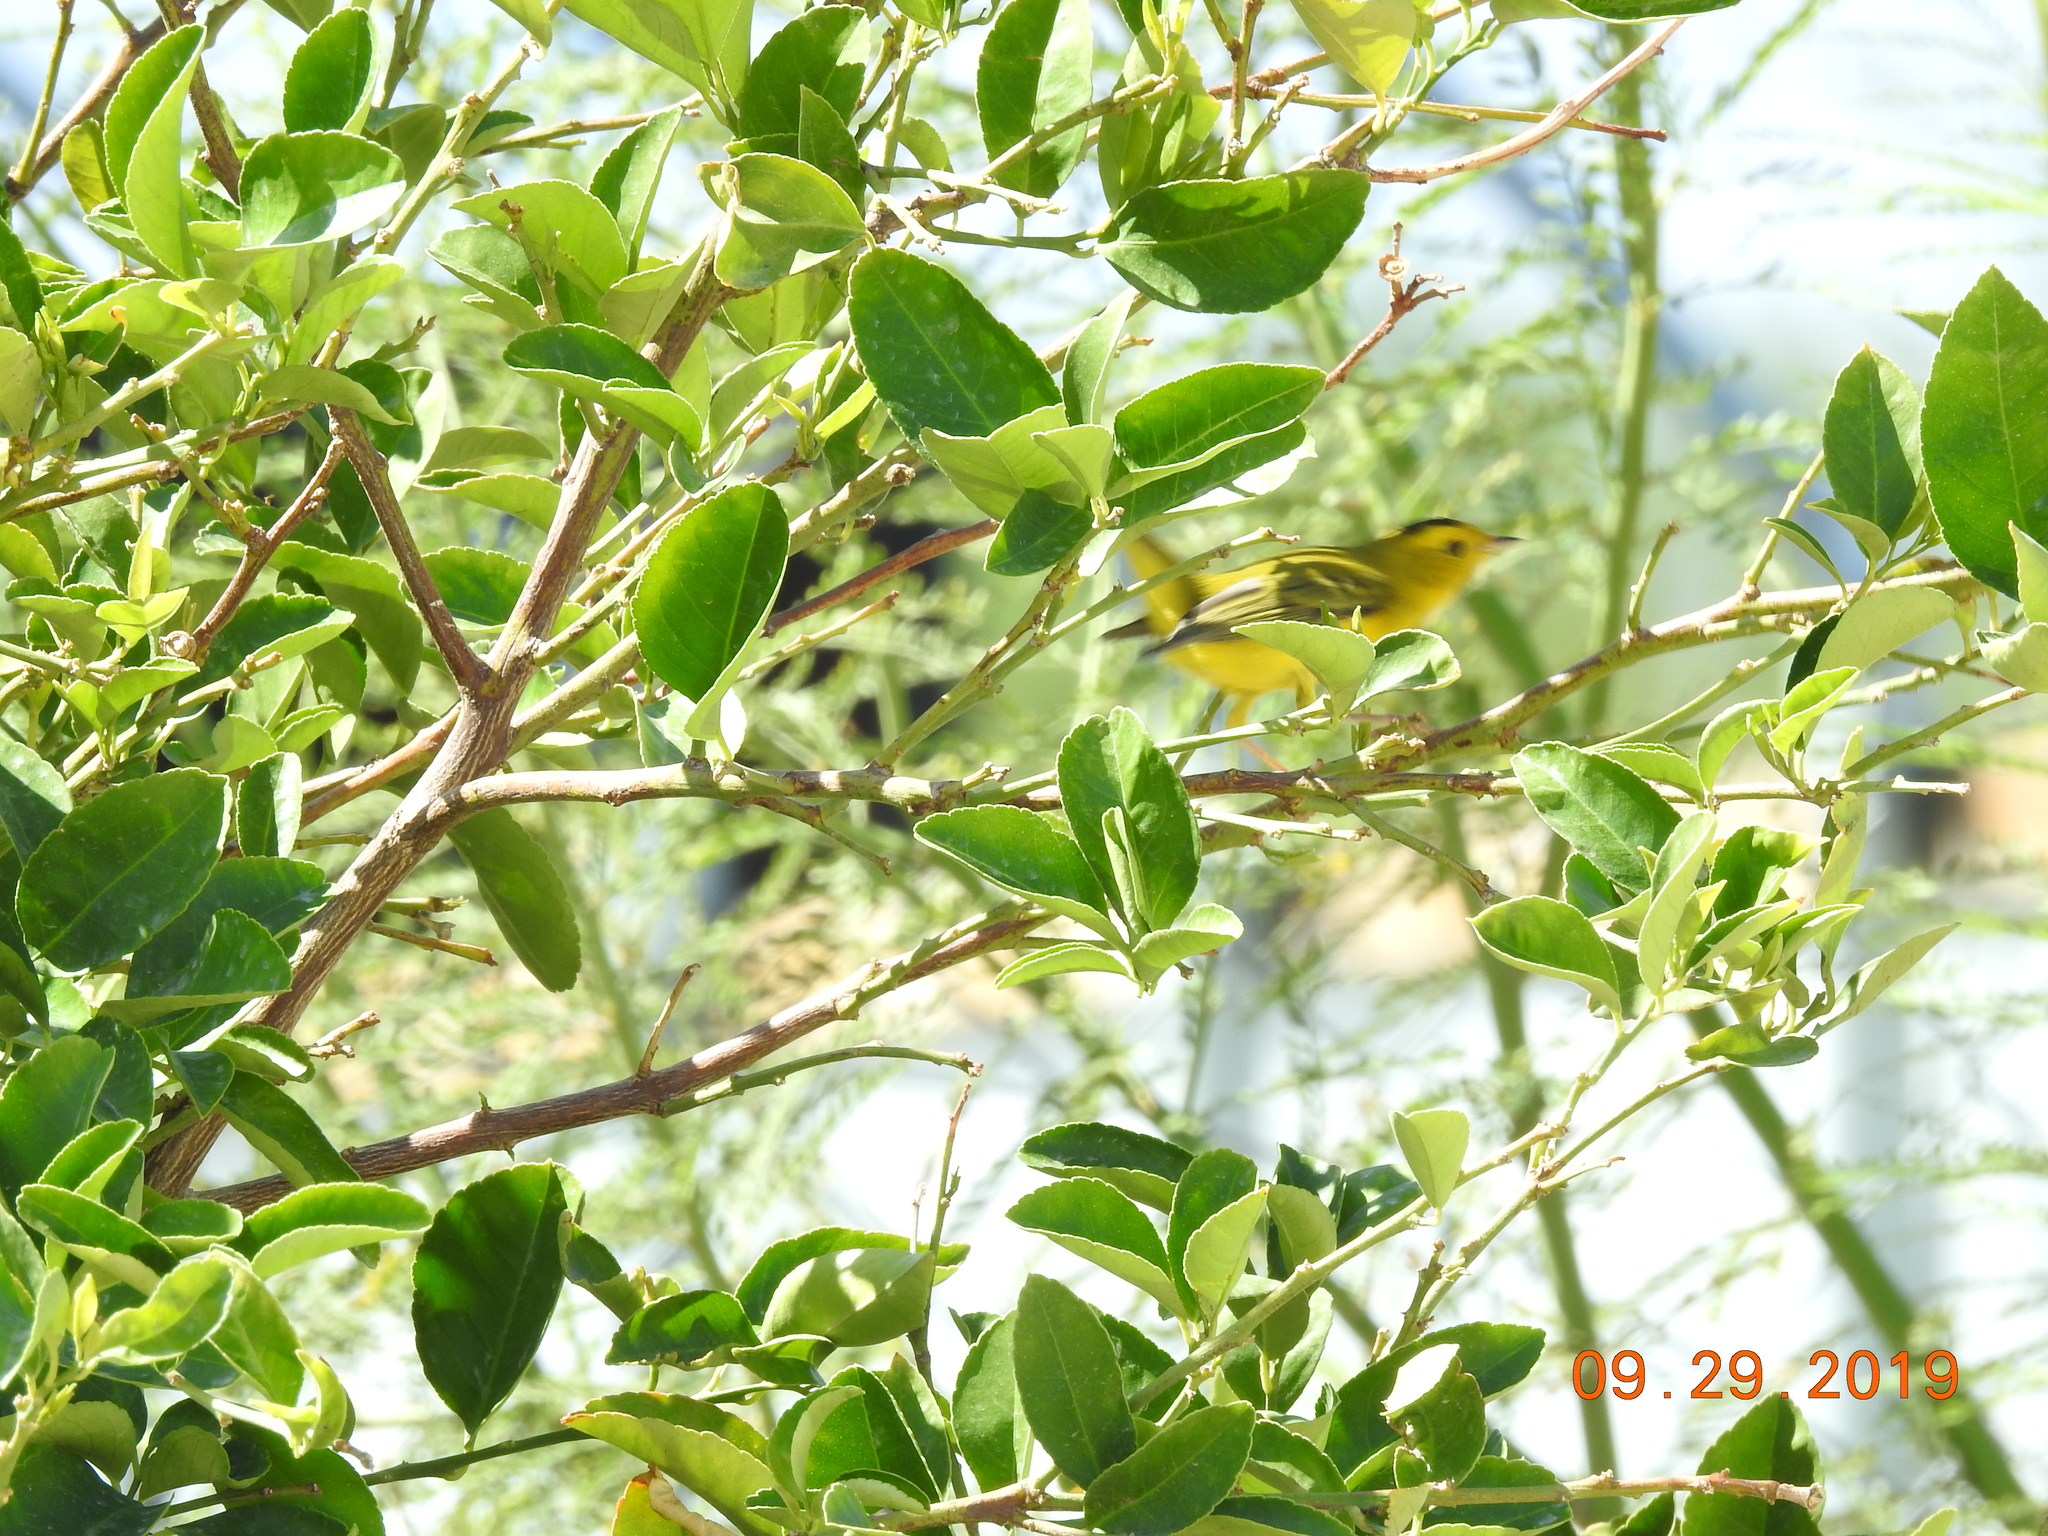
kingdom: Animalia
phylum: Chordata
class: Aves
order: Passeriformes
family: Parulidae
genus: Cardellina
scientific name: Cardellina pusilla
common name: Wilson's warbler
